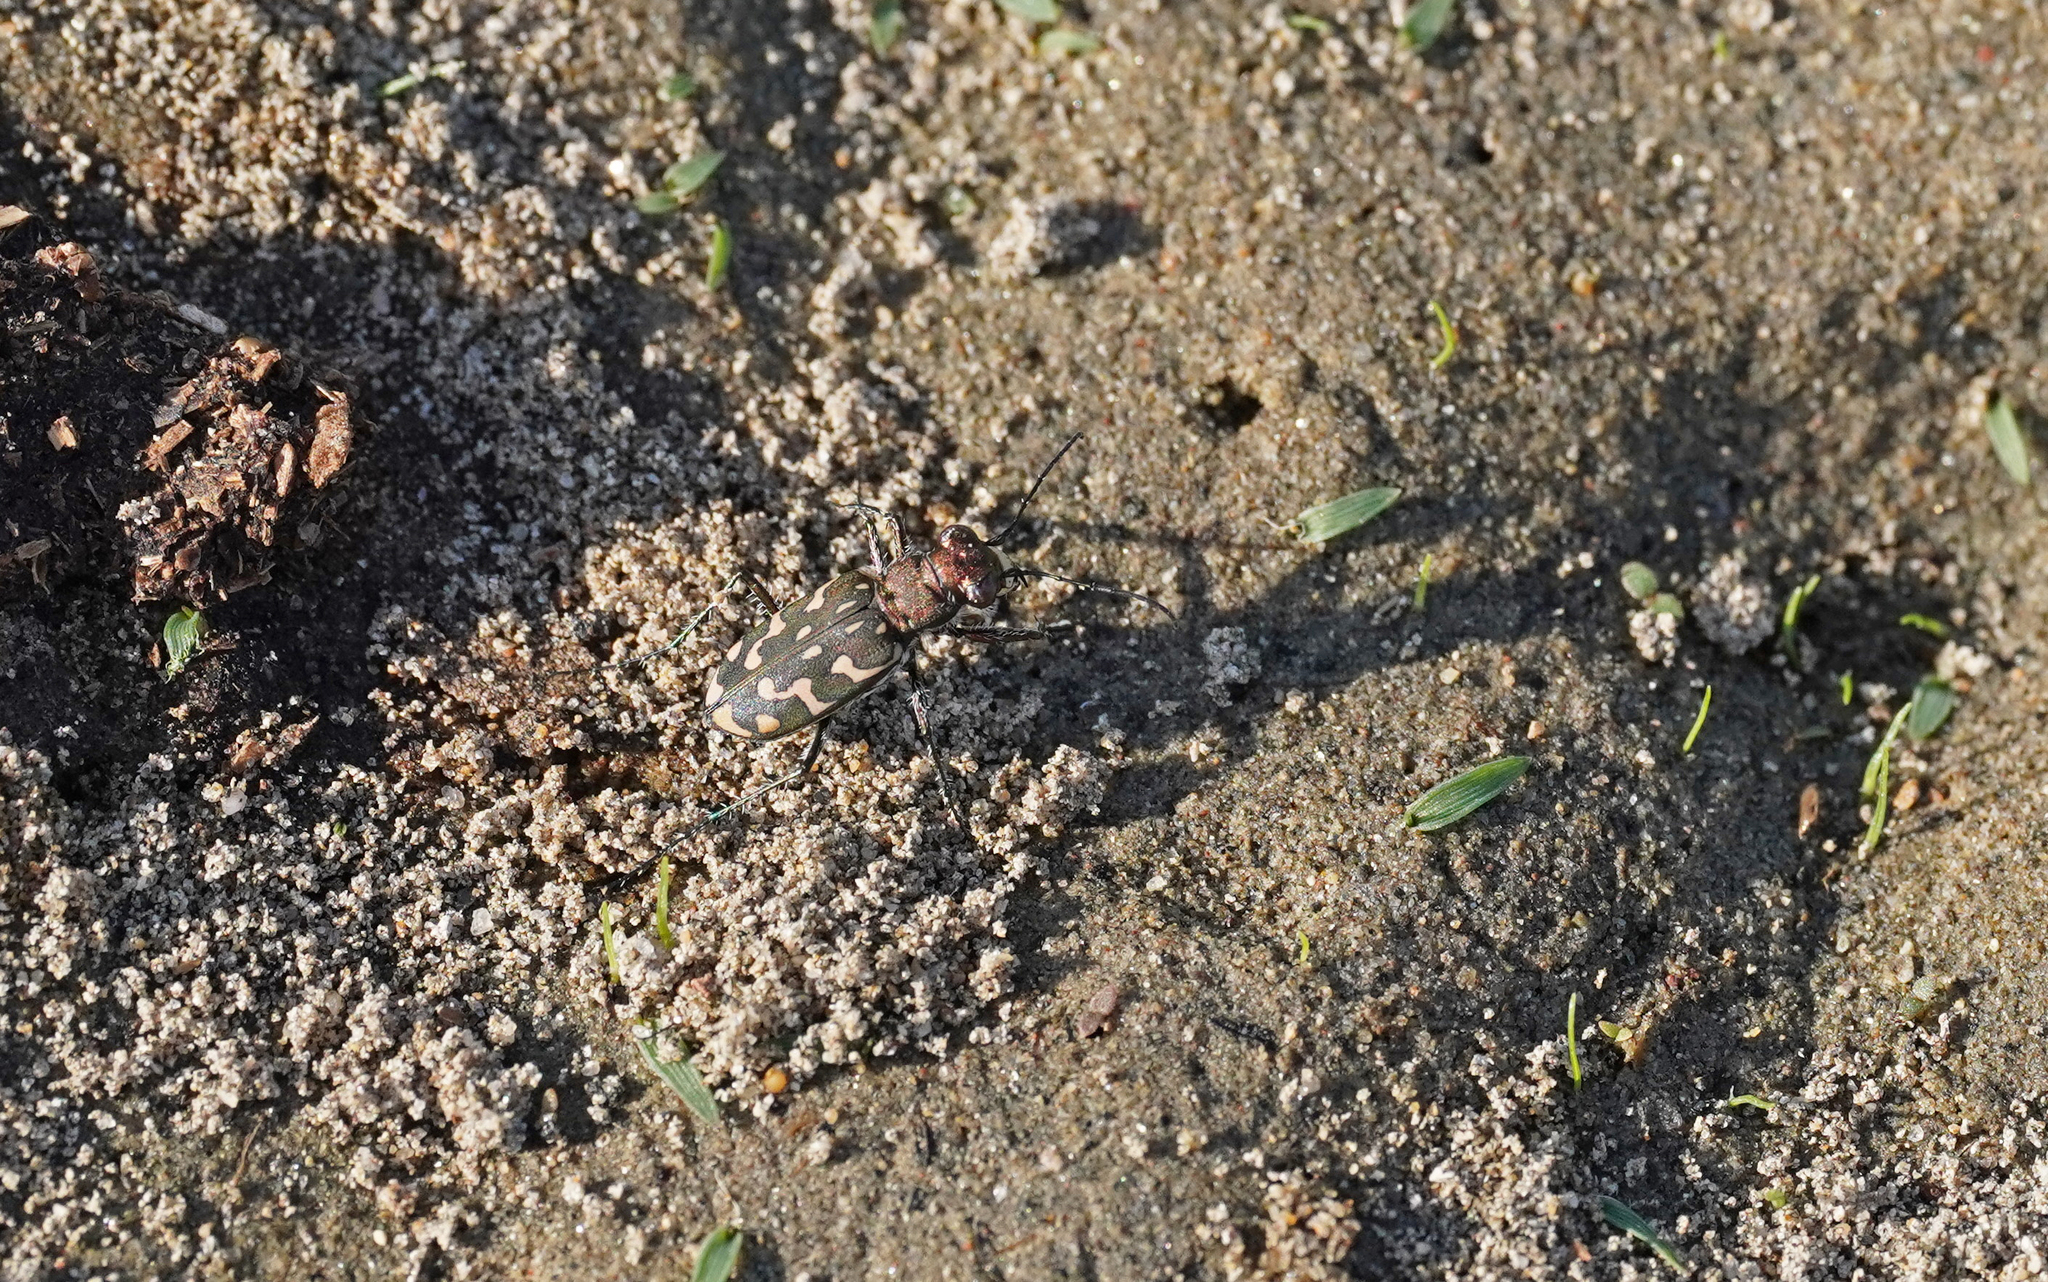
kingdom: Animalia
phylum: Arthropoda
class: Insecta
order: Coleoptera
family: Carabidae
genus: Lophyra
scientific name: Lophyra flexuosa
